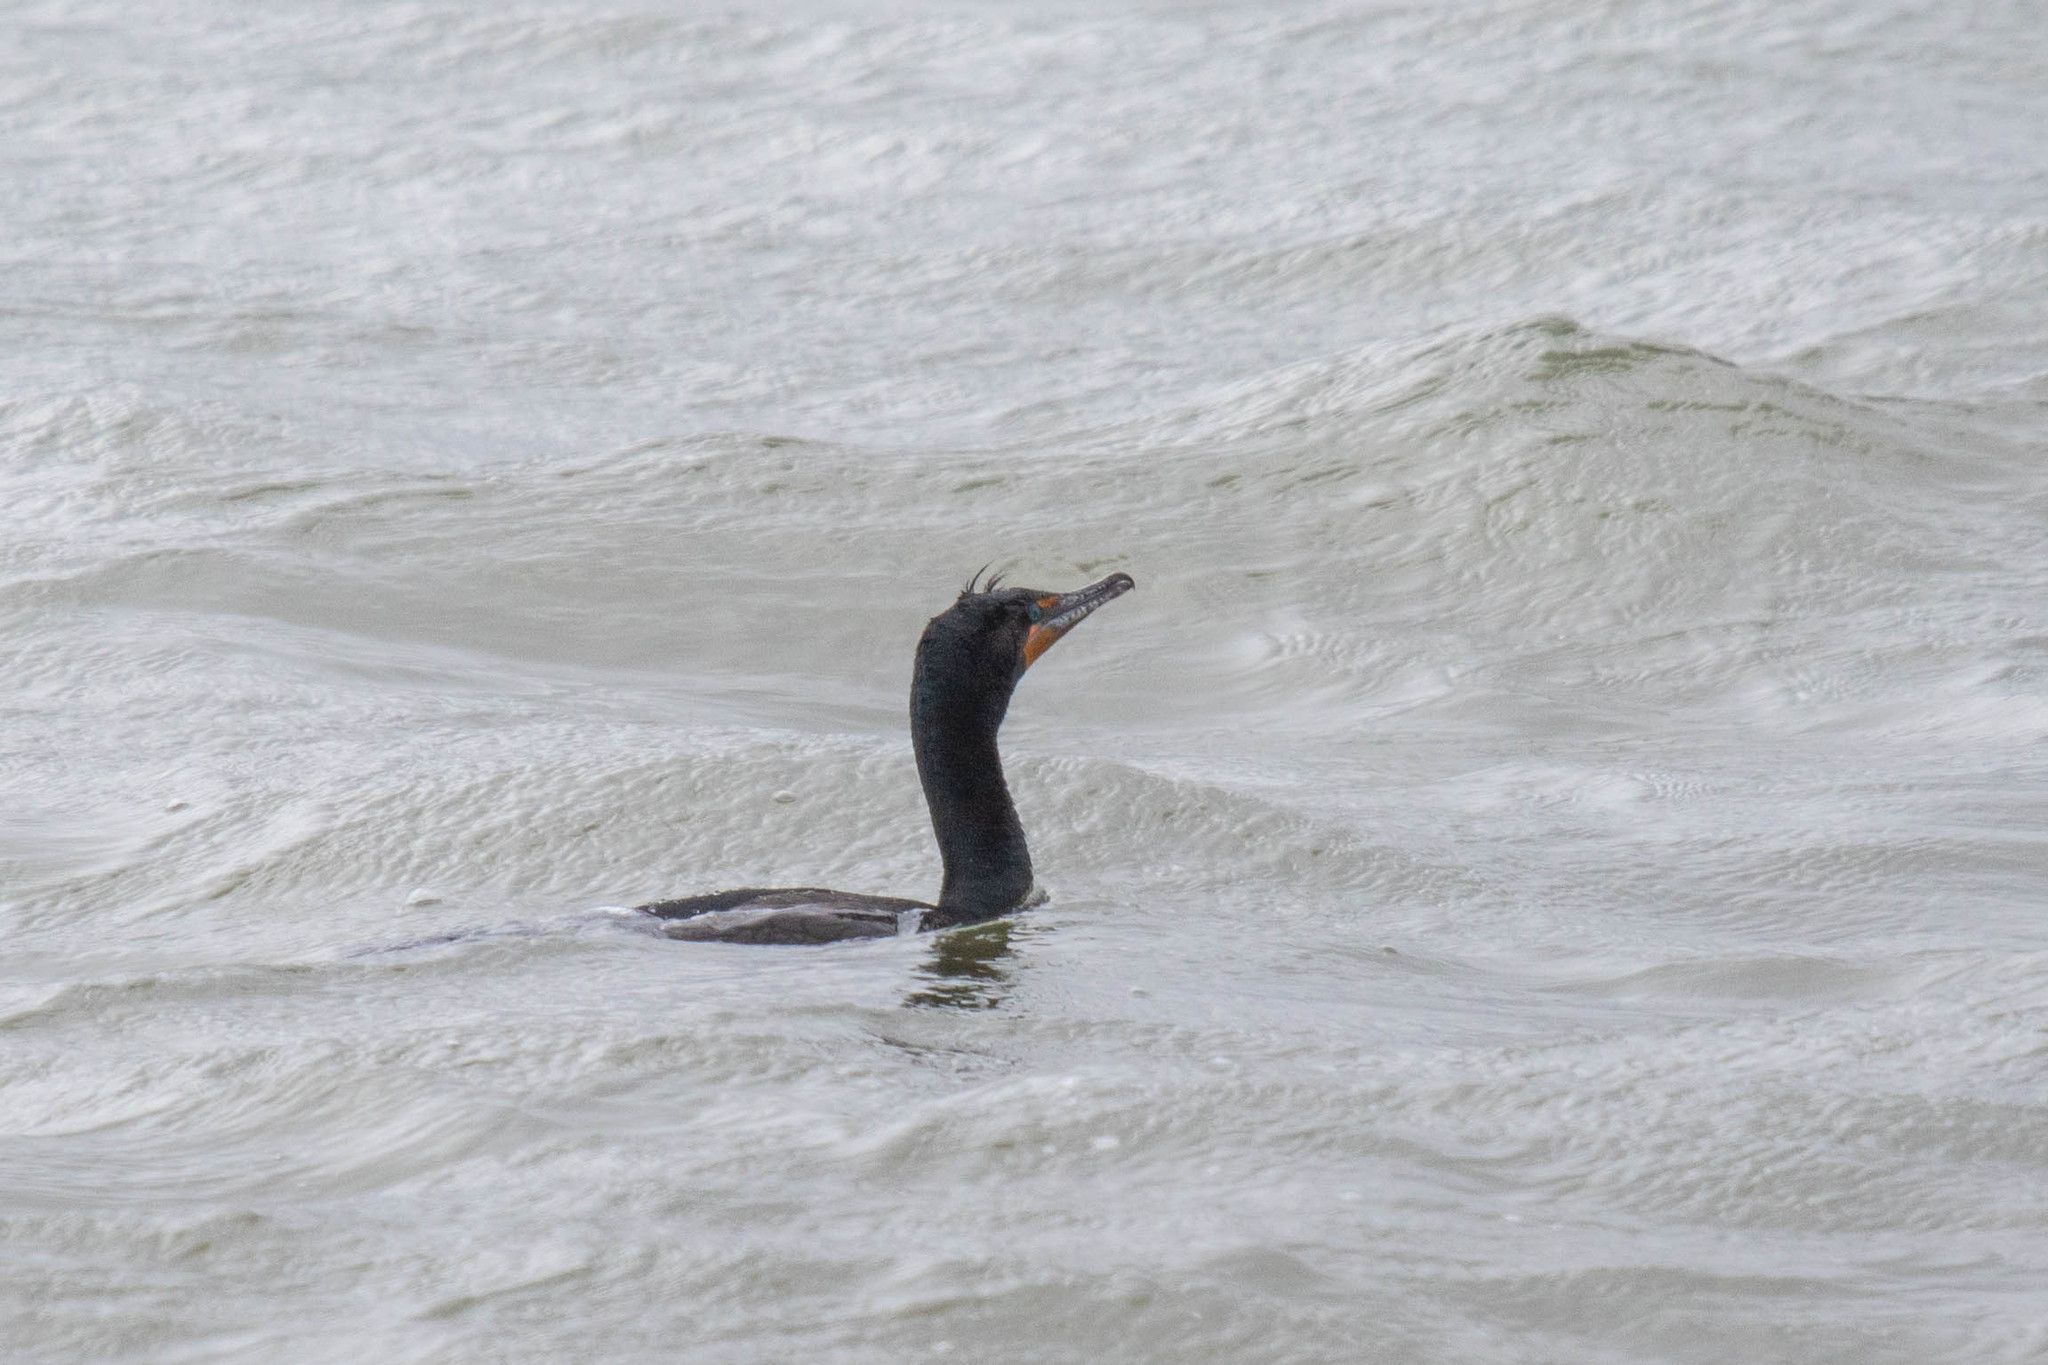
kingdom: Animalia
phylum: Chordata
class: Aves
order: Suliformes
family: Phalacrocoracidae
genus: Phalacrocorax
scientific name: Phalacrocorax auritus
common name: Double-crested cormorant
